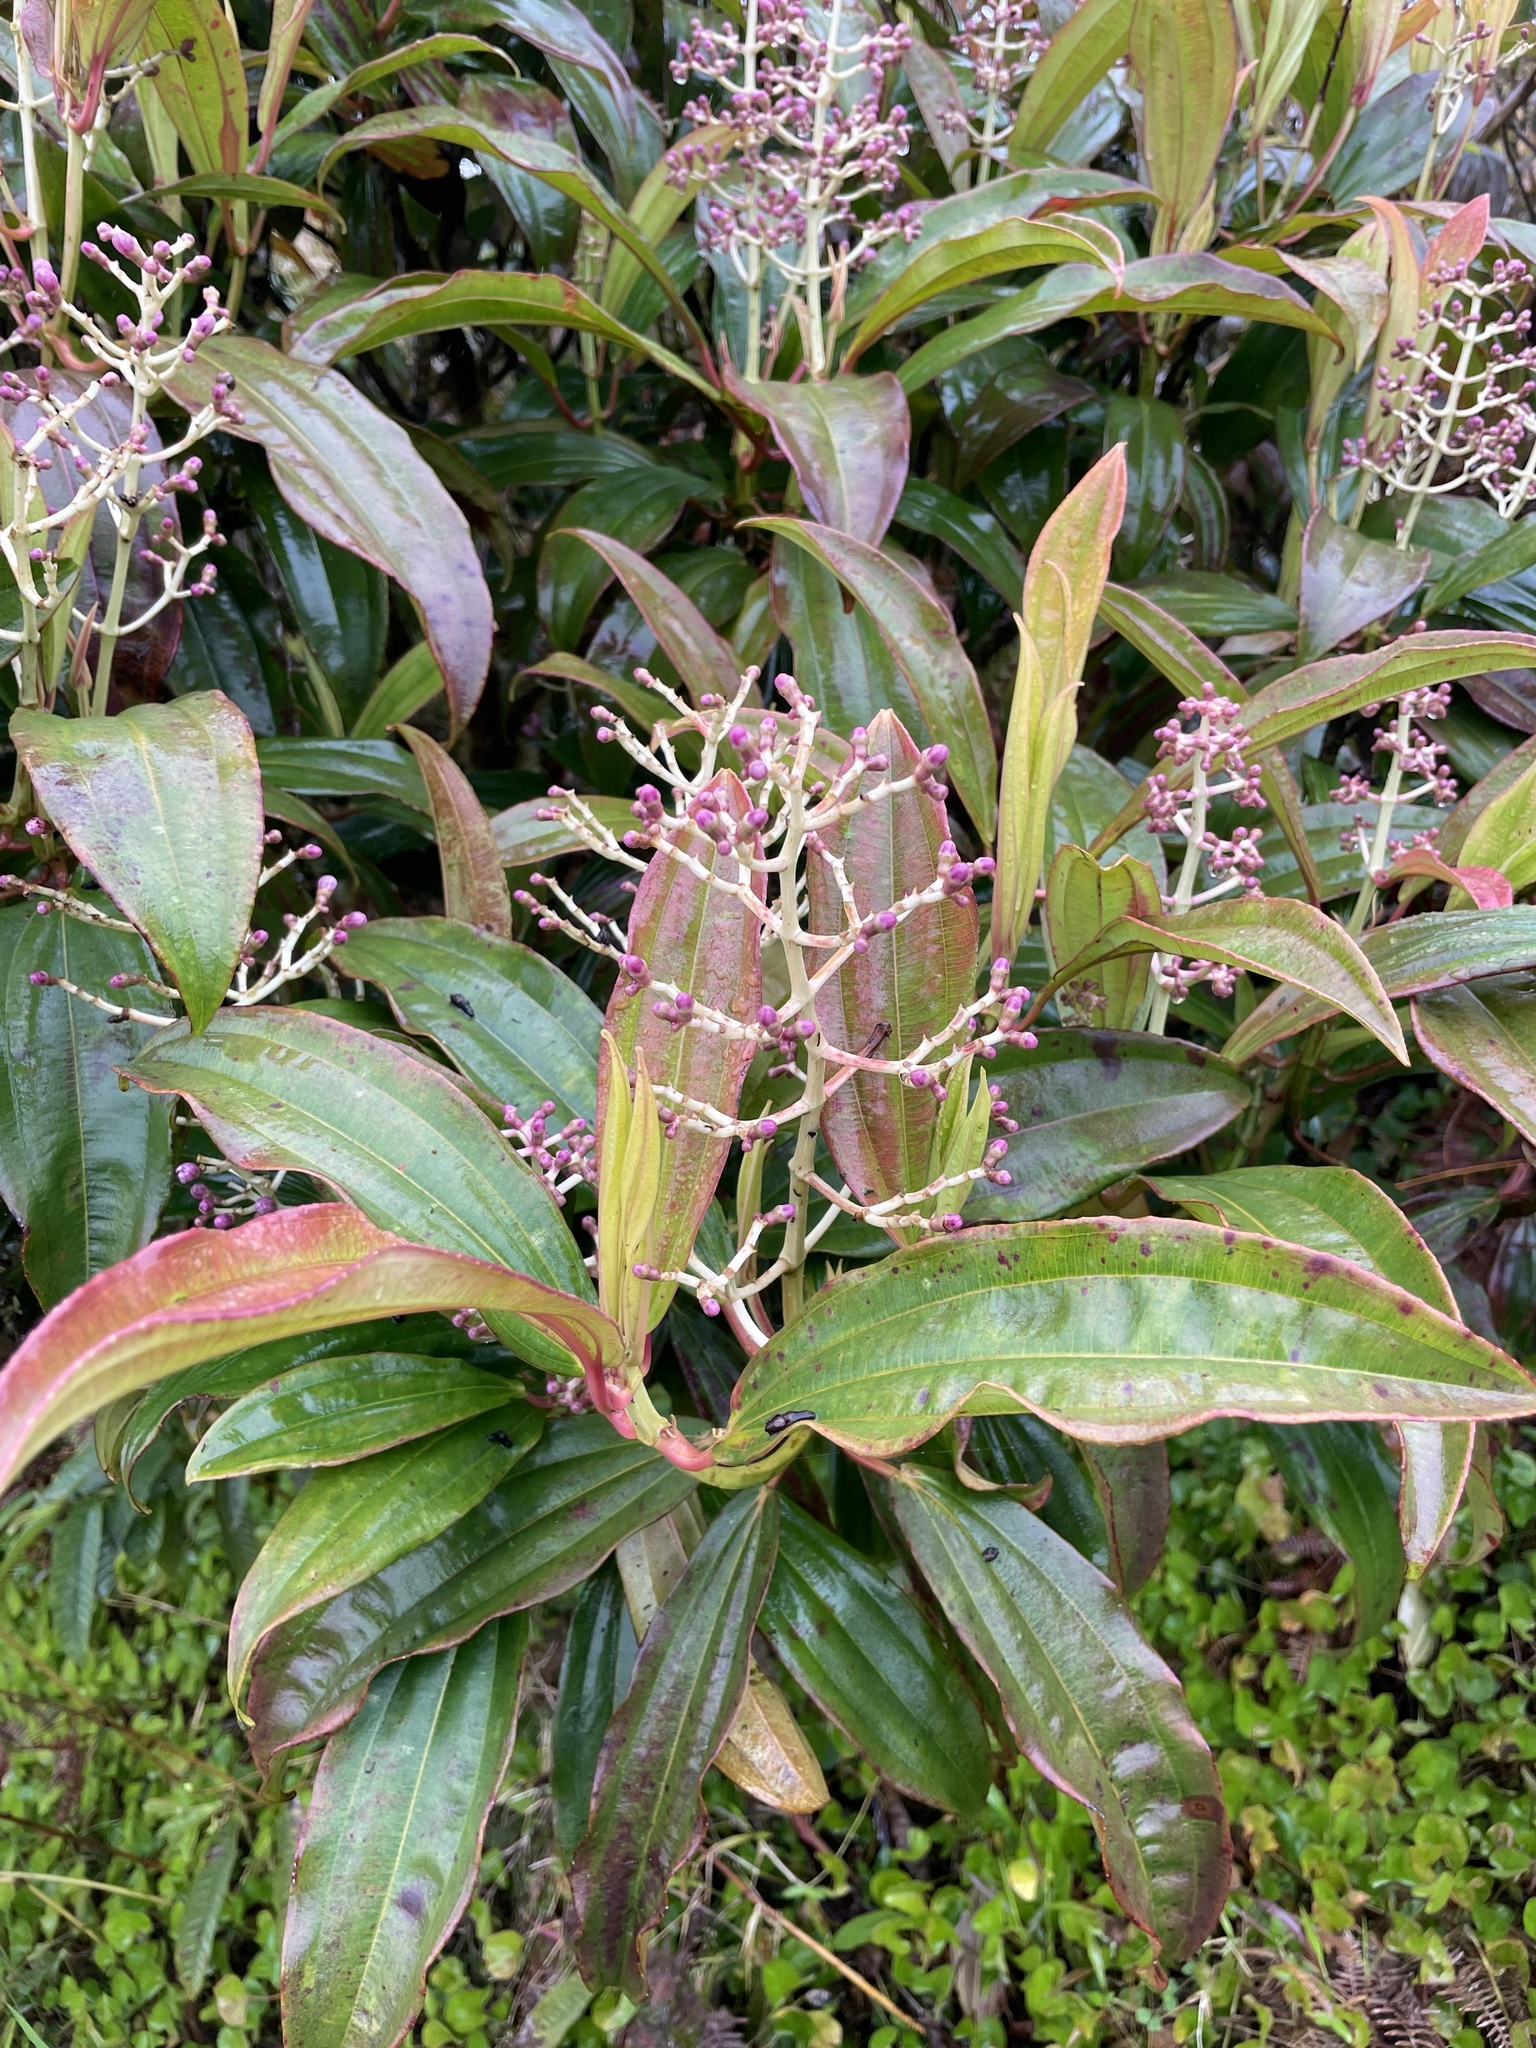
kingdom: Plantae
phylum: Tracheophyta
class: Magnoliopsida
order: Myrtales
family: Melastomataceae
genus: Miconia
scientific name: Miconia robinsoniana
